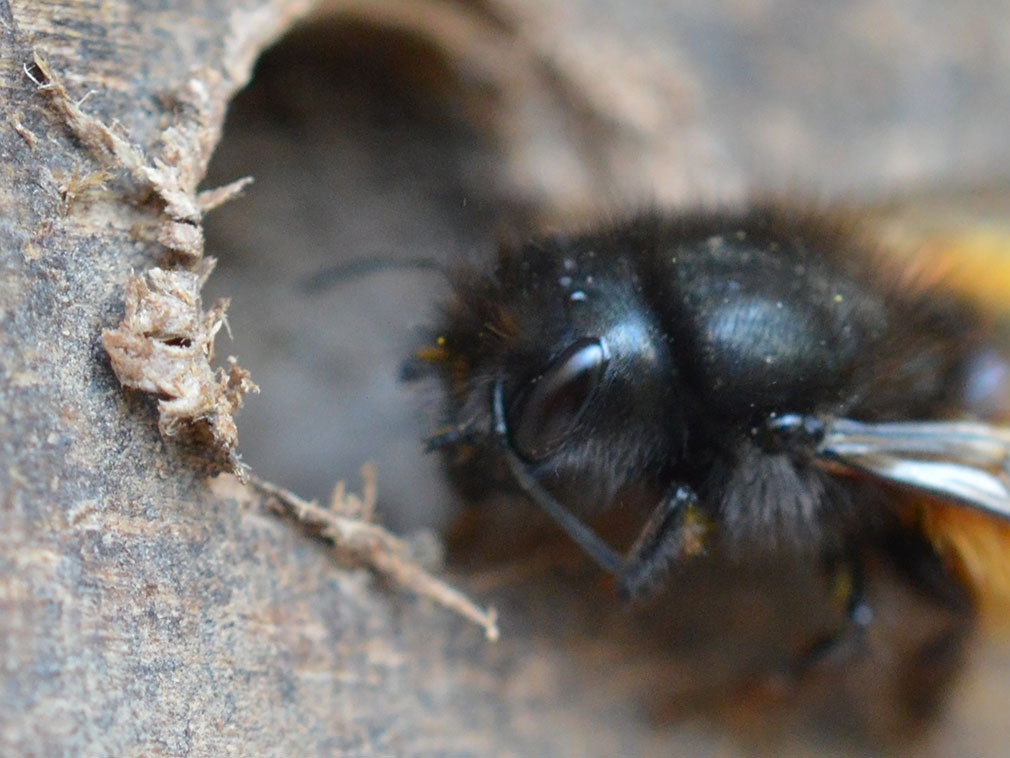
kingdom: Animalia
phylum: Arthropoda
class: Insecta
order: Hymenoptera
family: Megachilidae
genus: Osmia
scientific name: Osmia cornuta
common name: Mason bee
